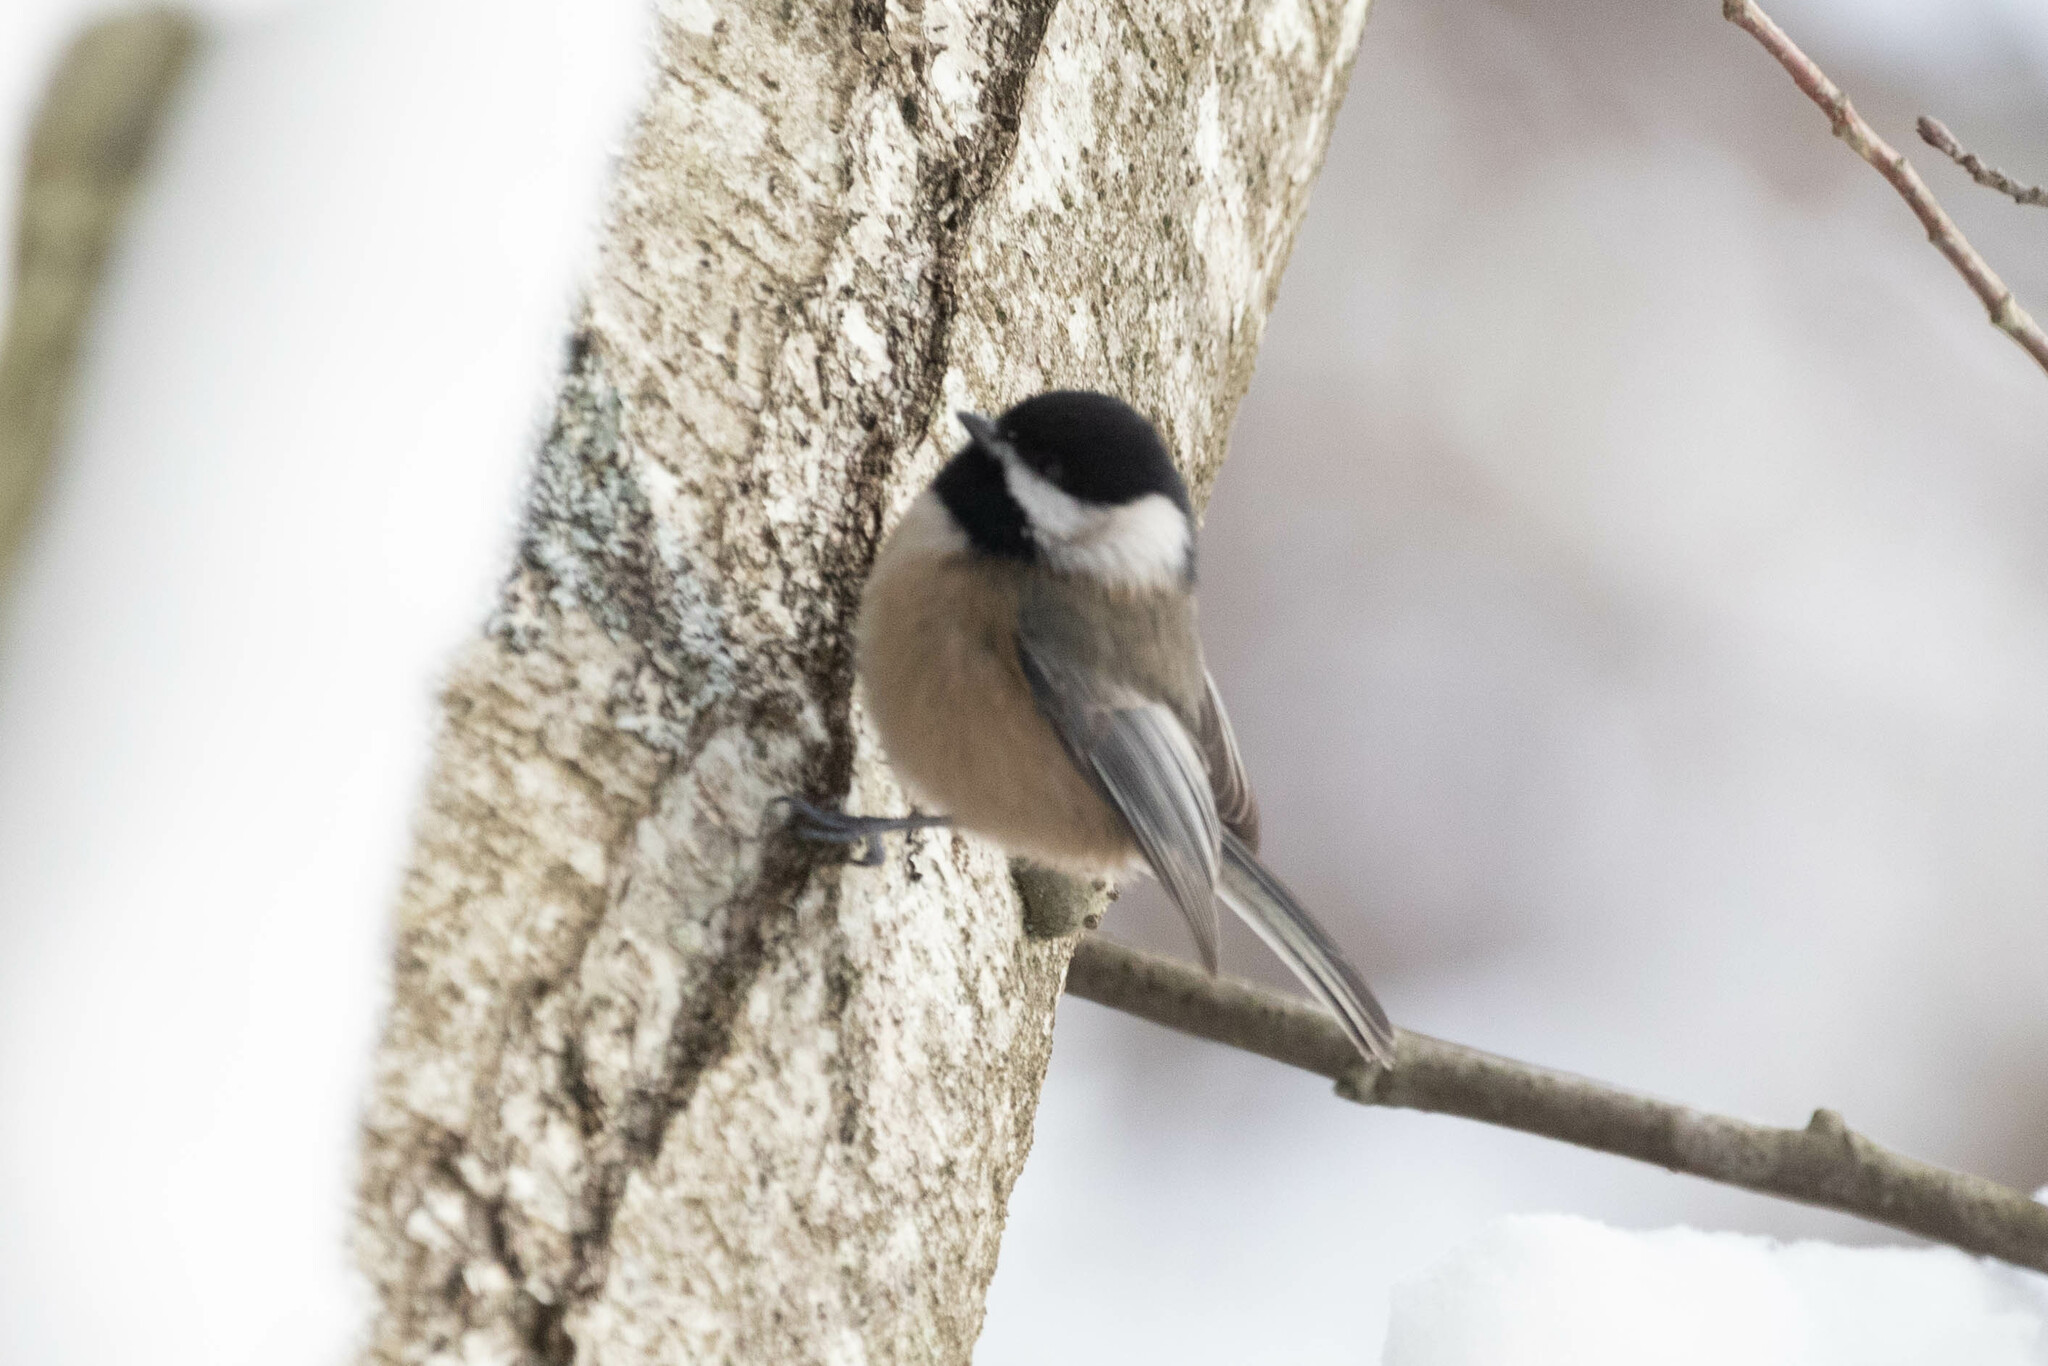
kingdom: Animalia
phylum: Chordata
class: Aves
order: Passeriformes
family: Paridae
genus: Poecile
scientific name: Poecile atricapillus
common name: Black-capped chickadee
